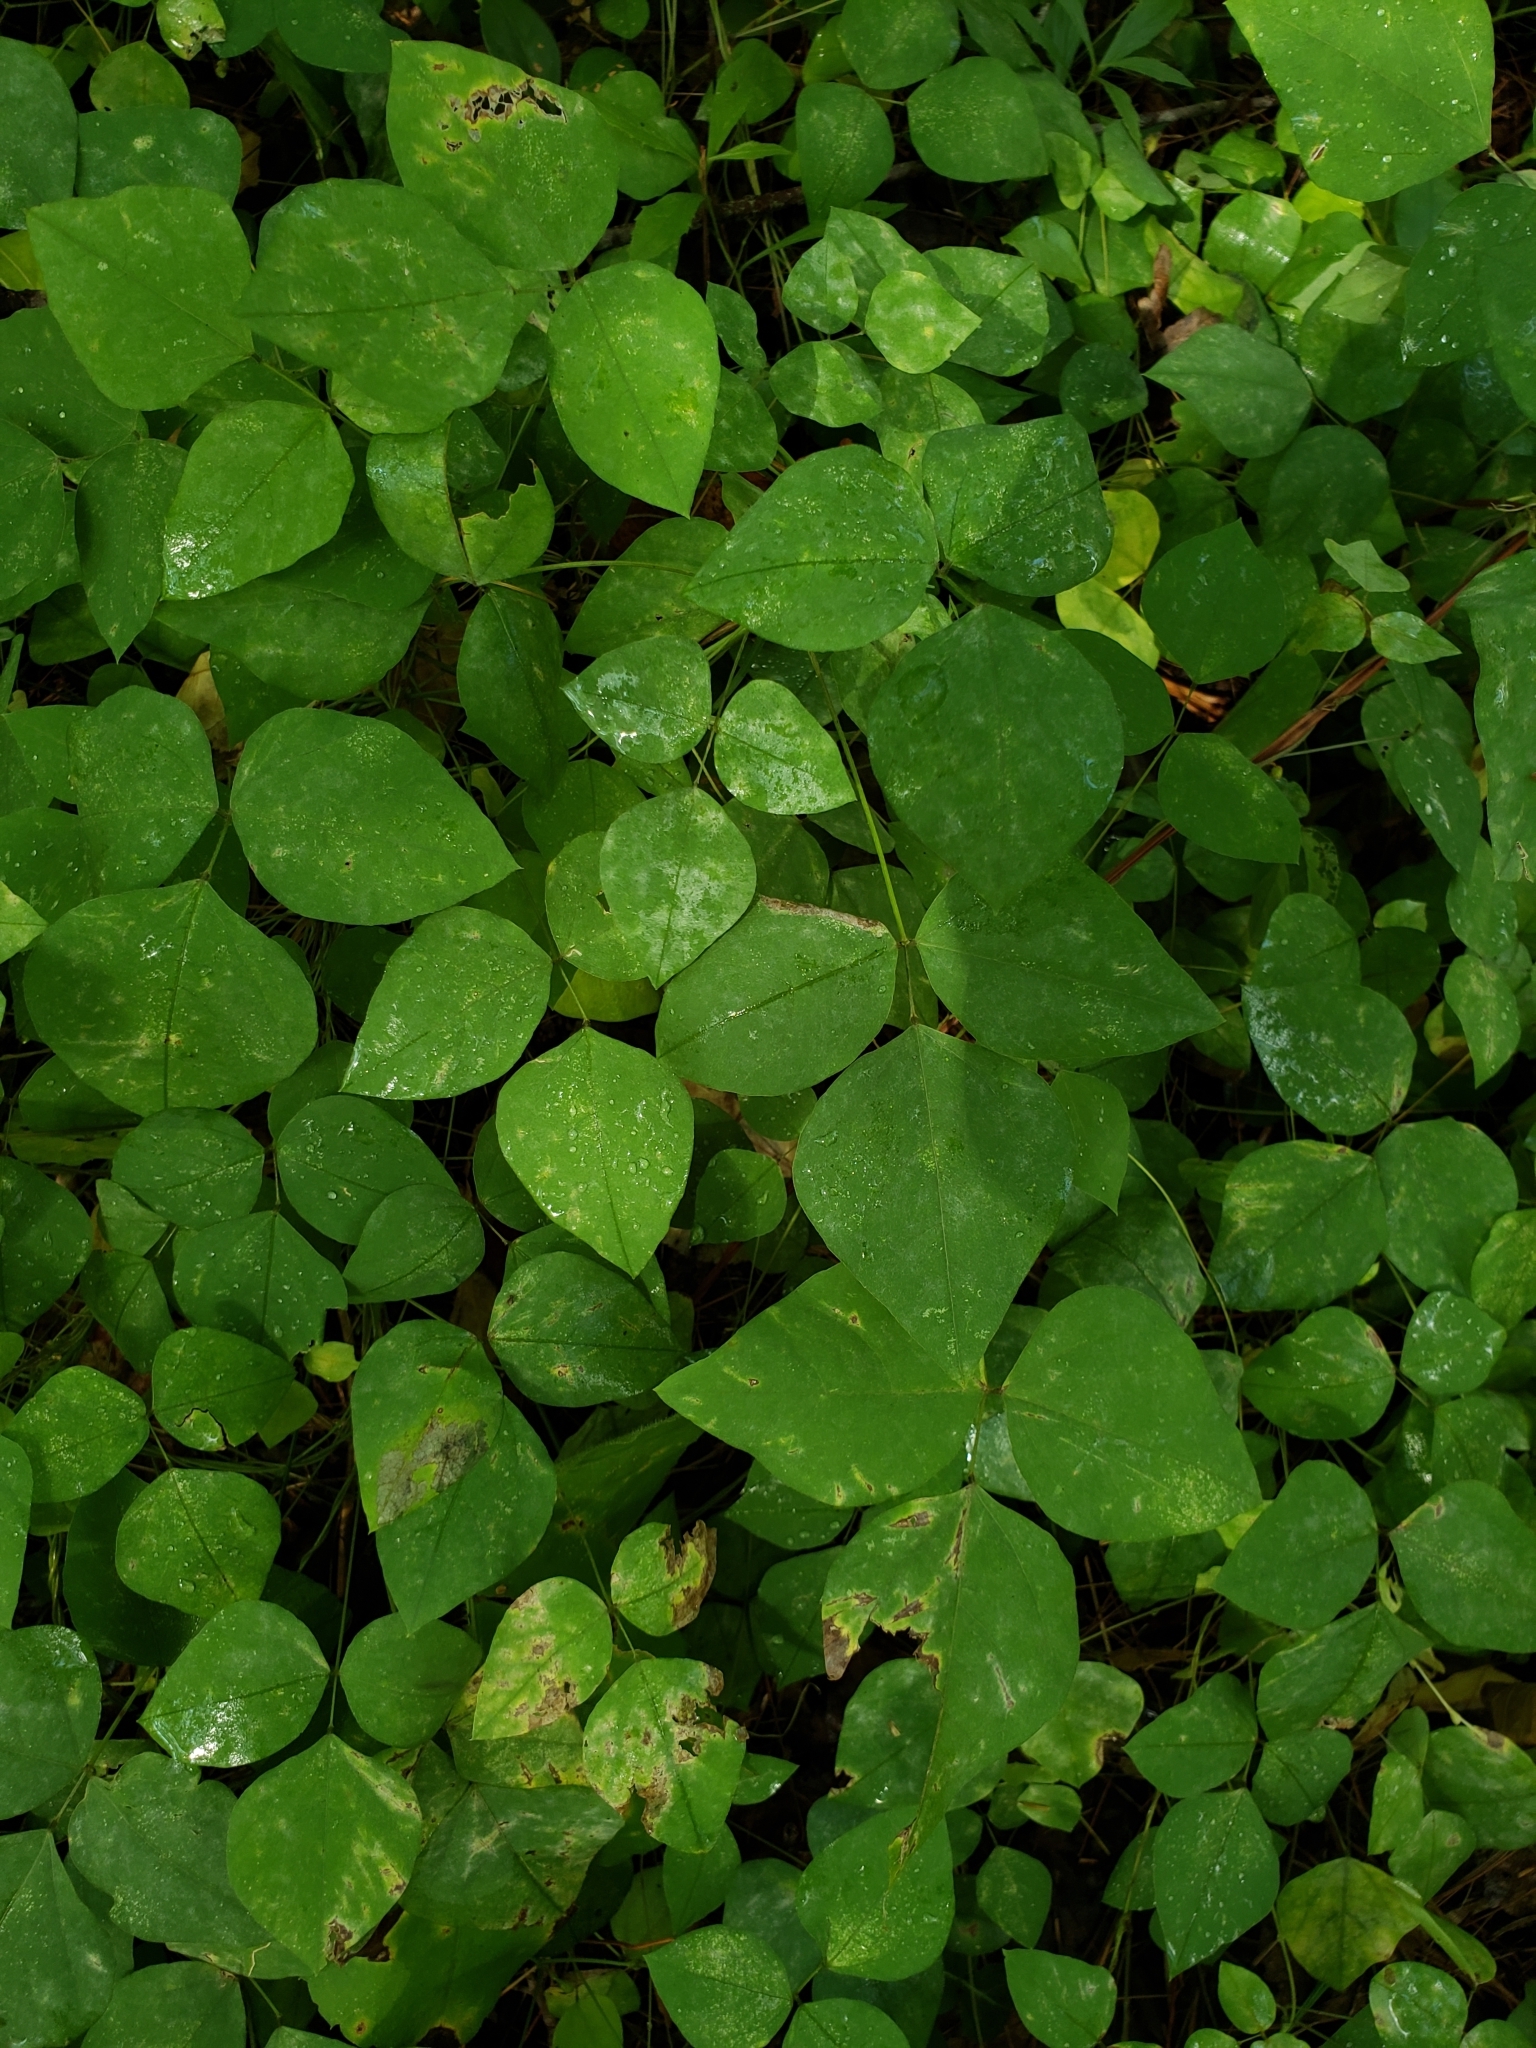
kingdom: Plantae
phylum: Tracheophyta
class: Magnoliopsida
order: Fabales
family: Fabaceae
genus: Amphicarpaea
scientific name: Amphicarpaea bracteata
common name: American hog peanut
